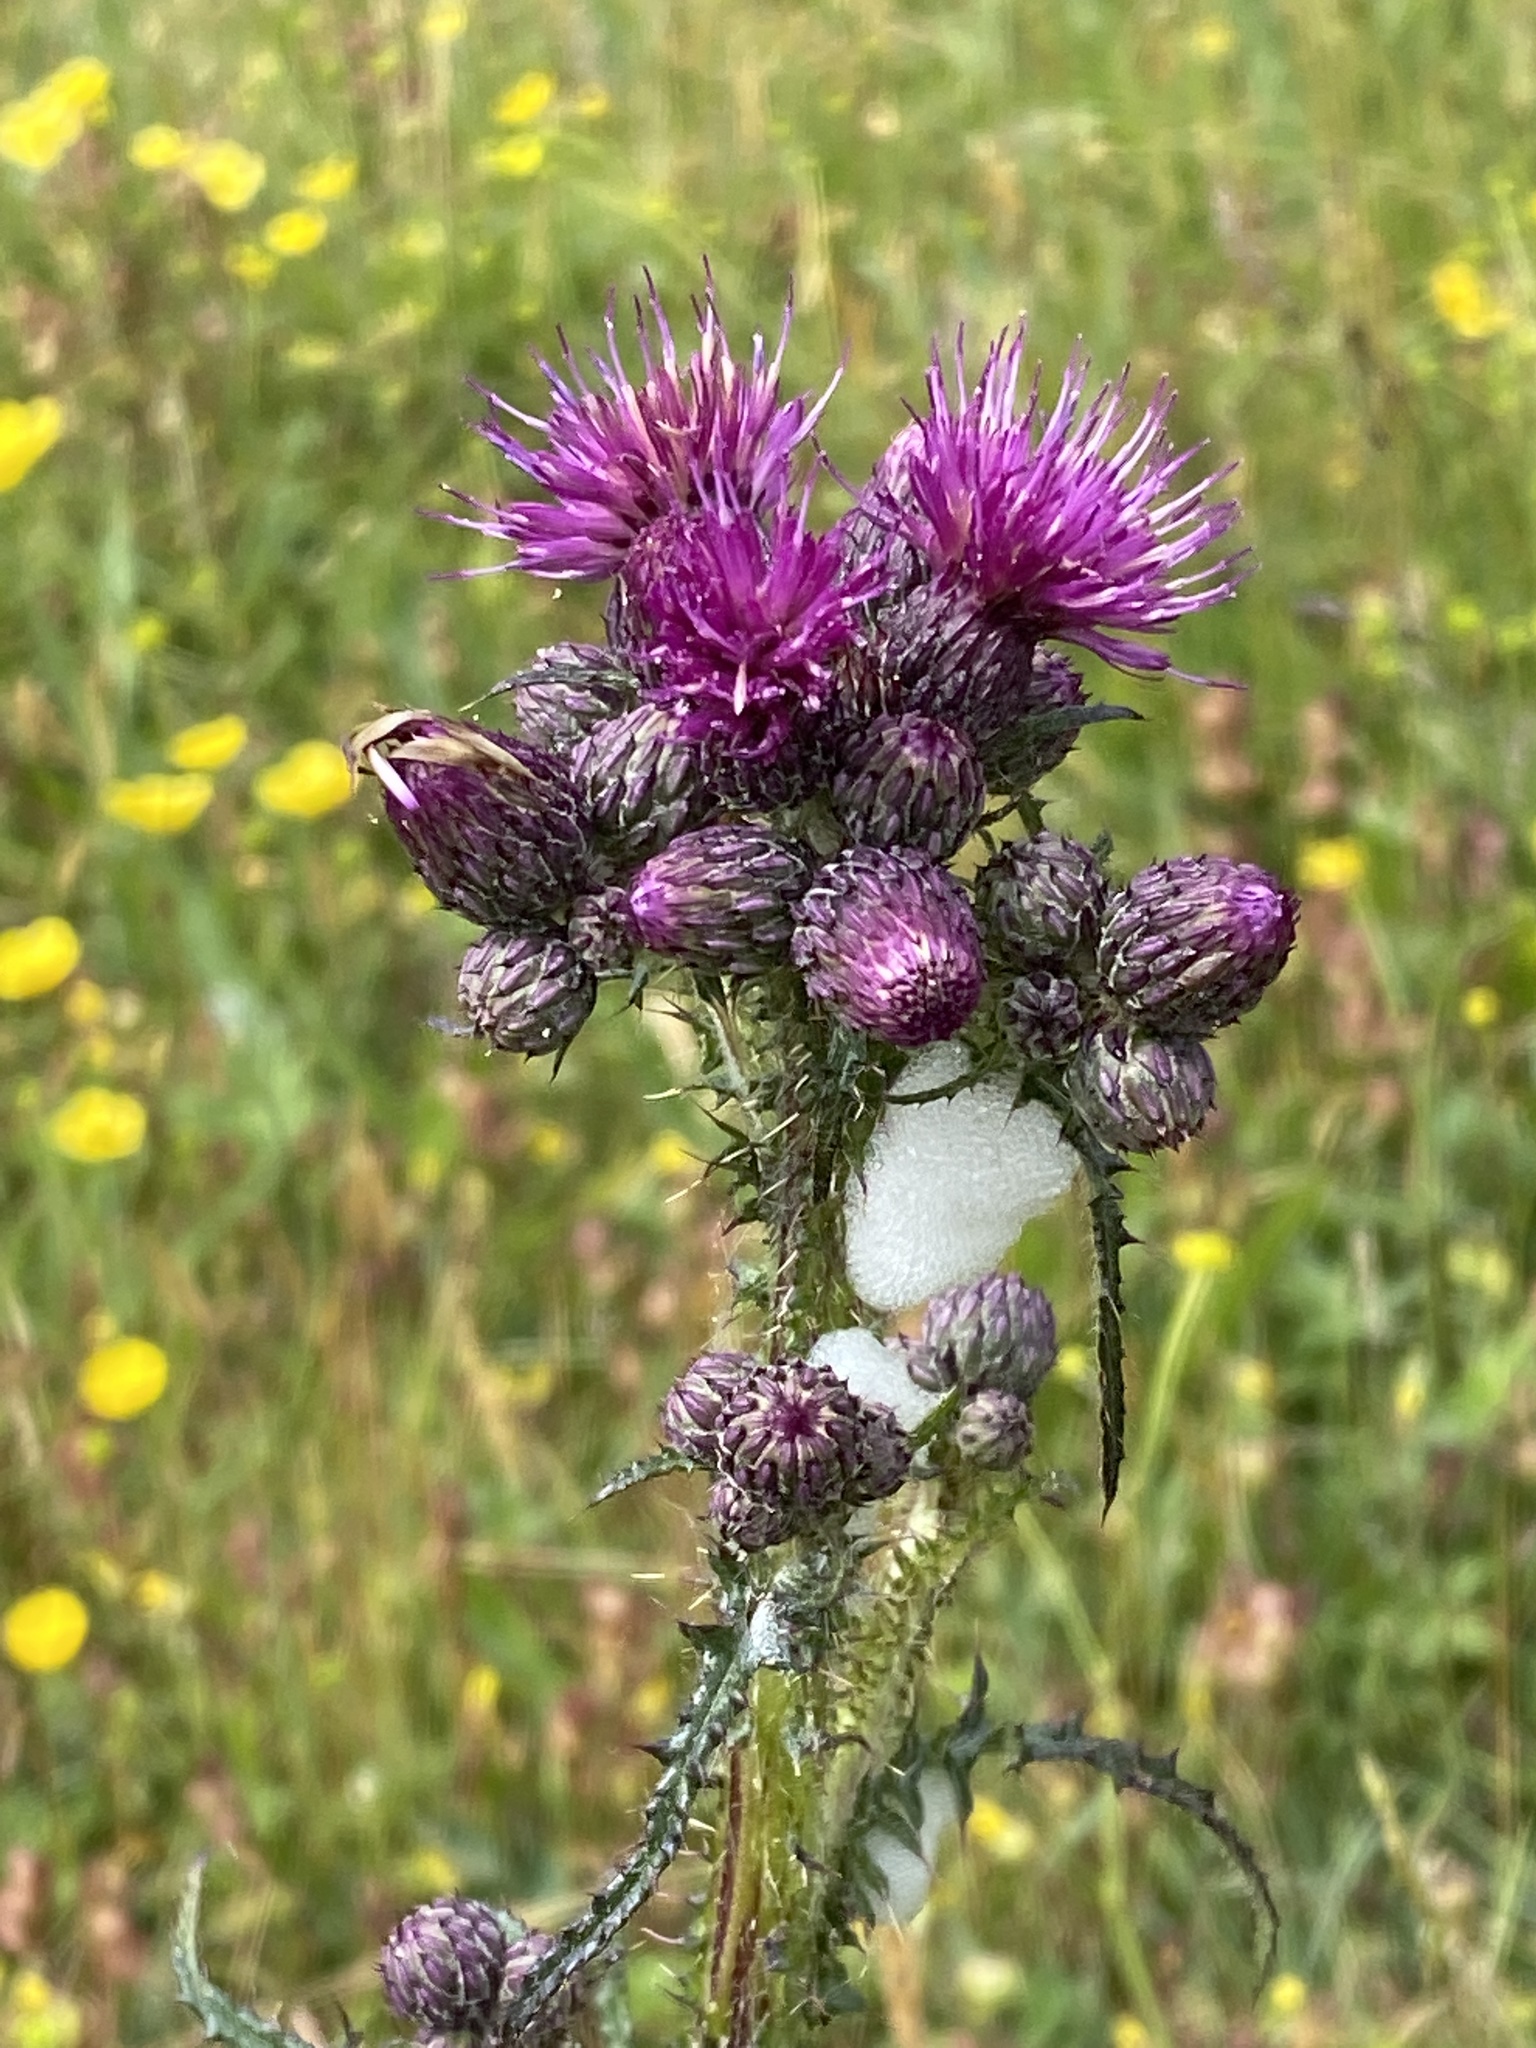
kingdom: Plantae
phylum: Tracheophyta
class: Magnoliopsida
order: Asterales
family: Asteraceae
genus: Cirsium
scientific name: Cirsium palustre
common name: Marsh thistle
